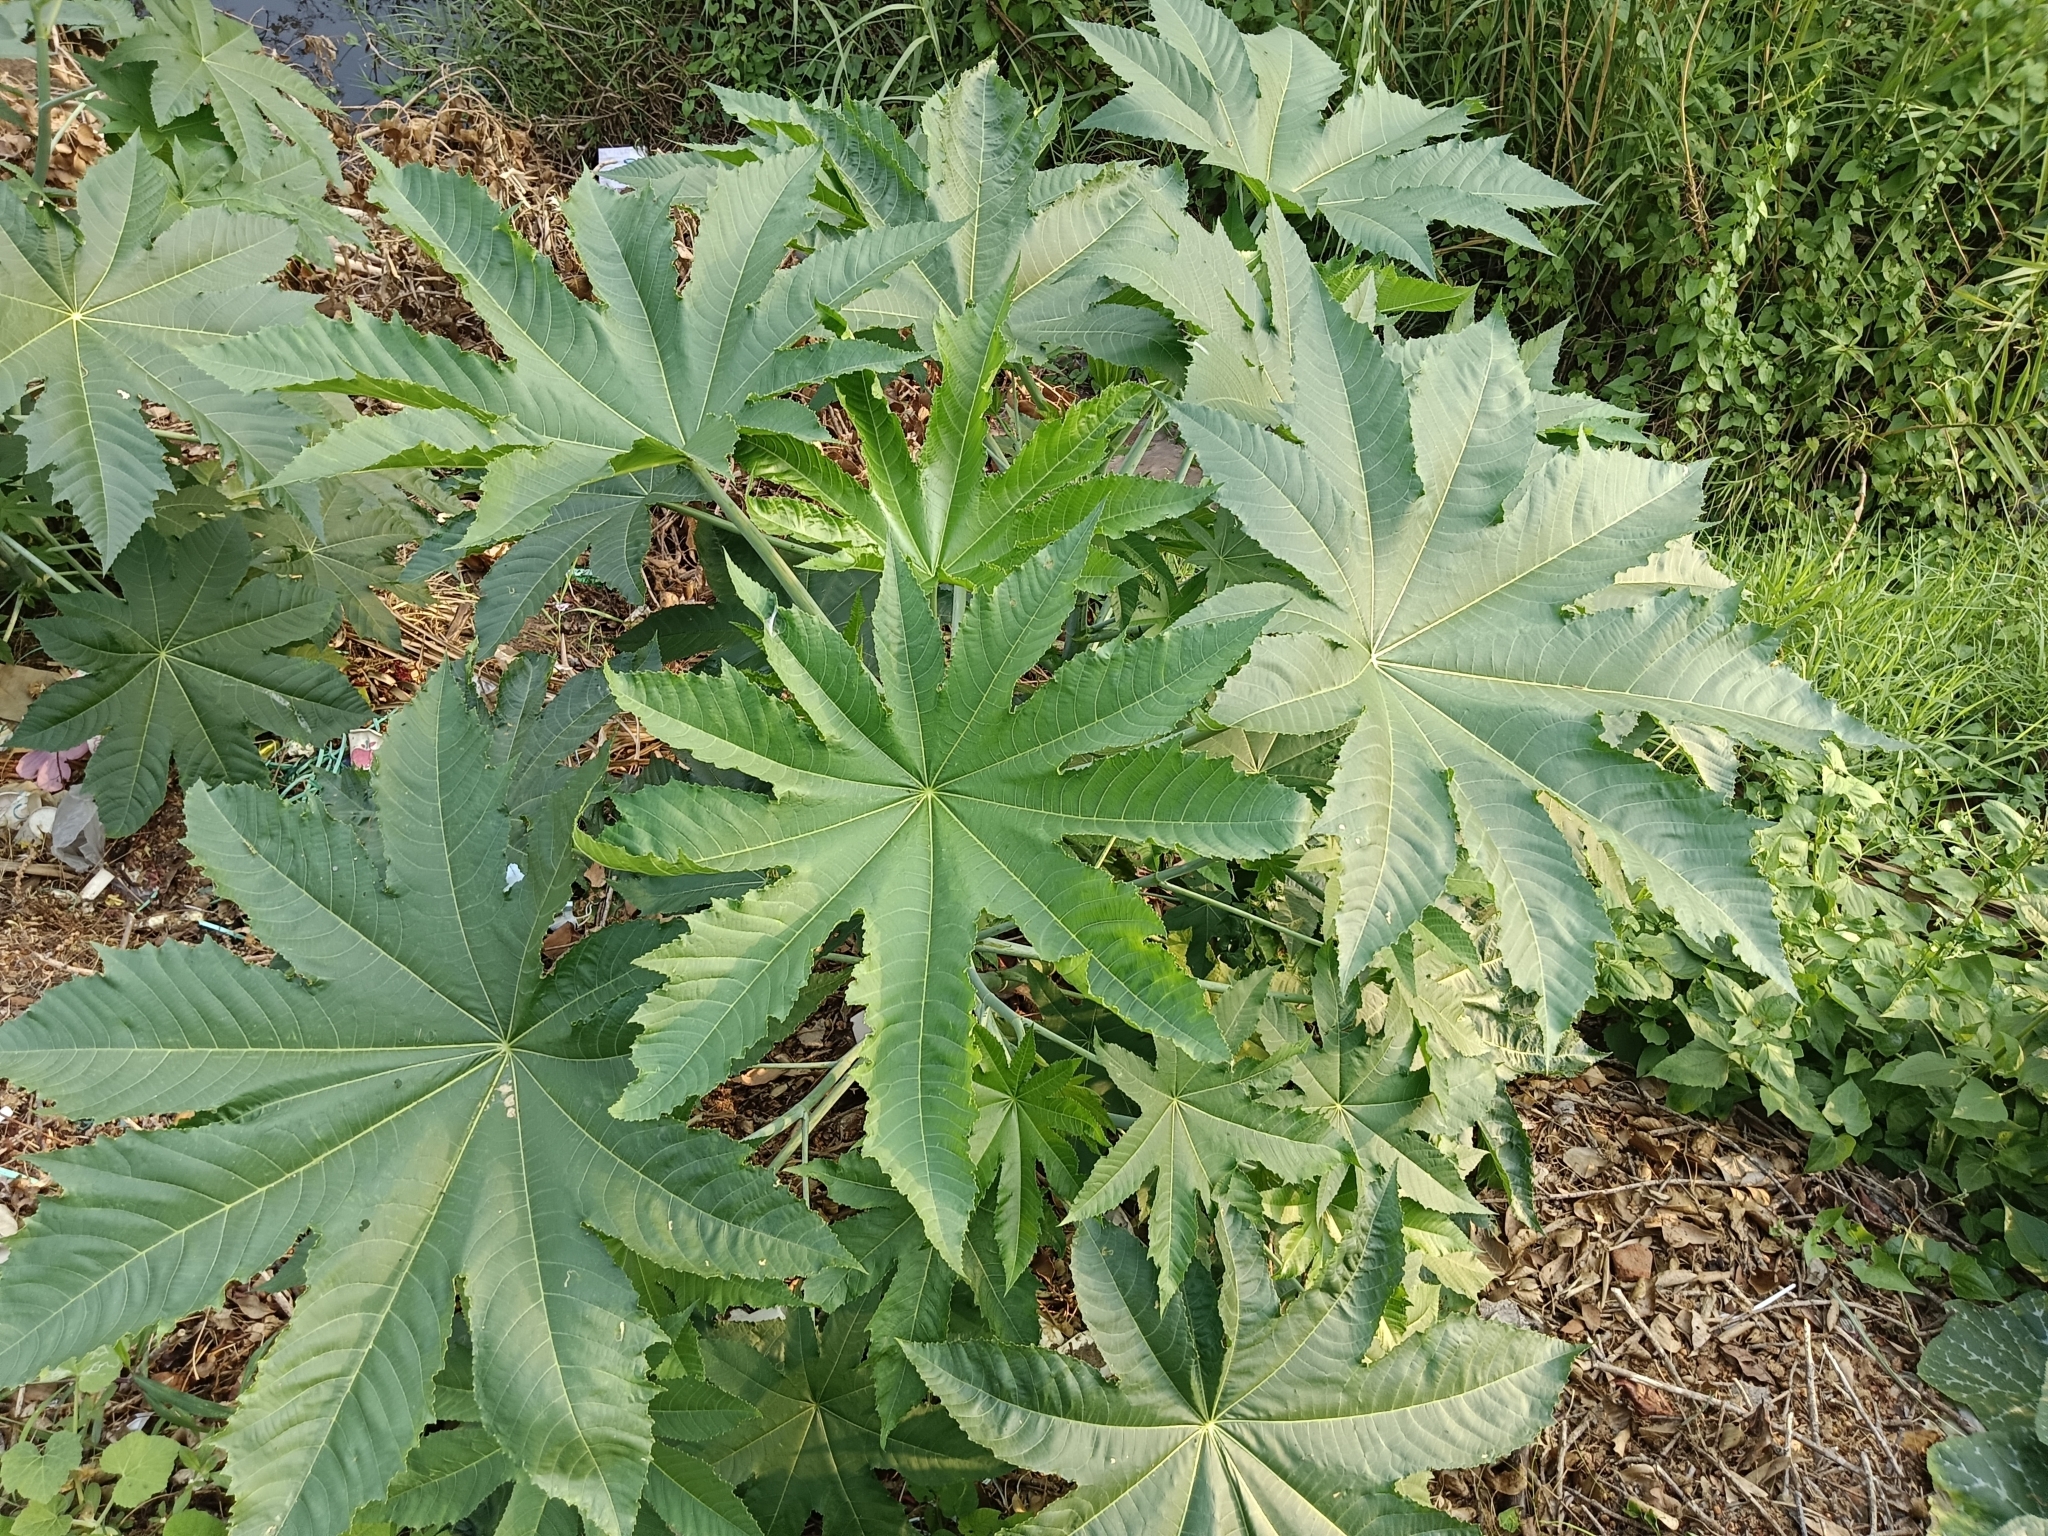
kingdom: Plantae
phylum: Tracheophyta
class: Magnoliopsida
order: Malpighiales
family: Euphorbiaceae
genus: Ricinus
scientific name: Ricinus communis
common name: Castor-oil-plant
